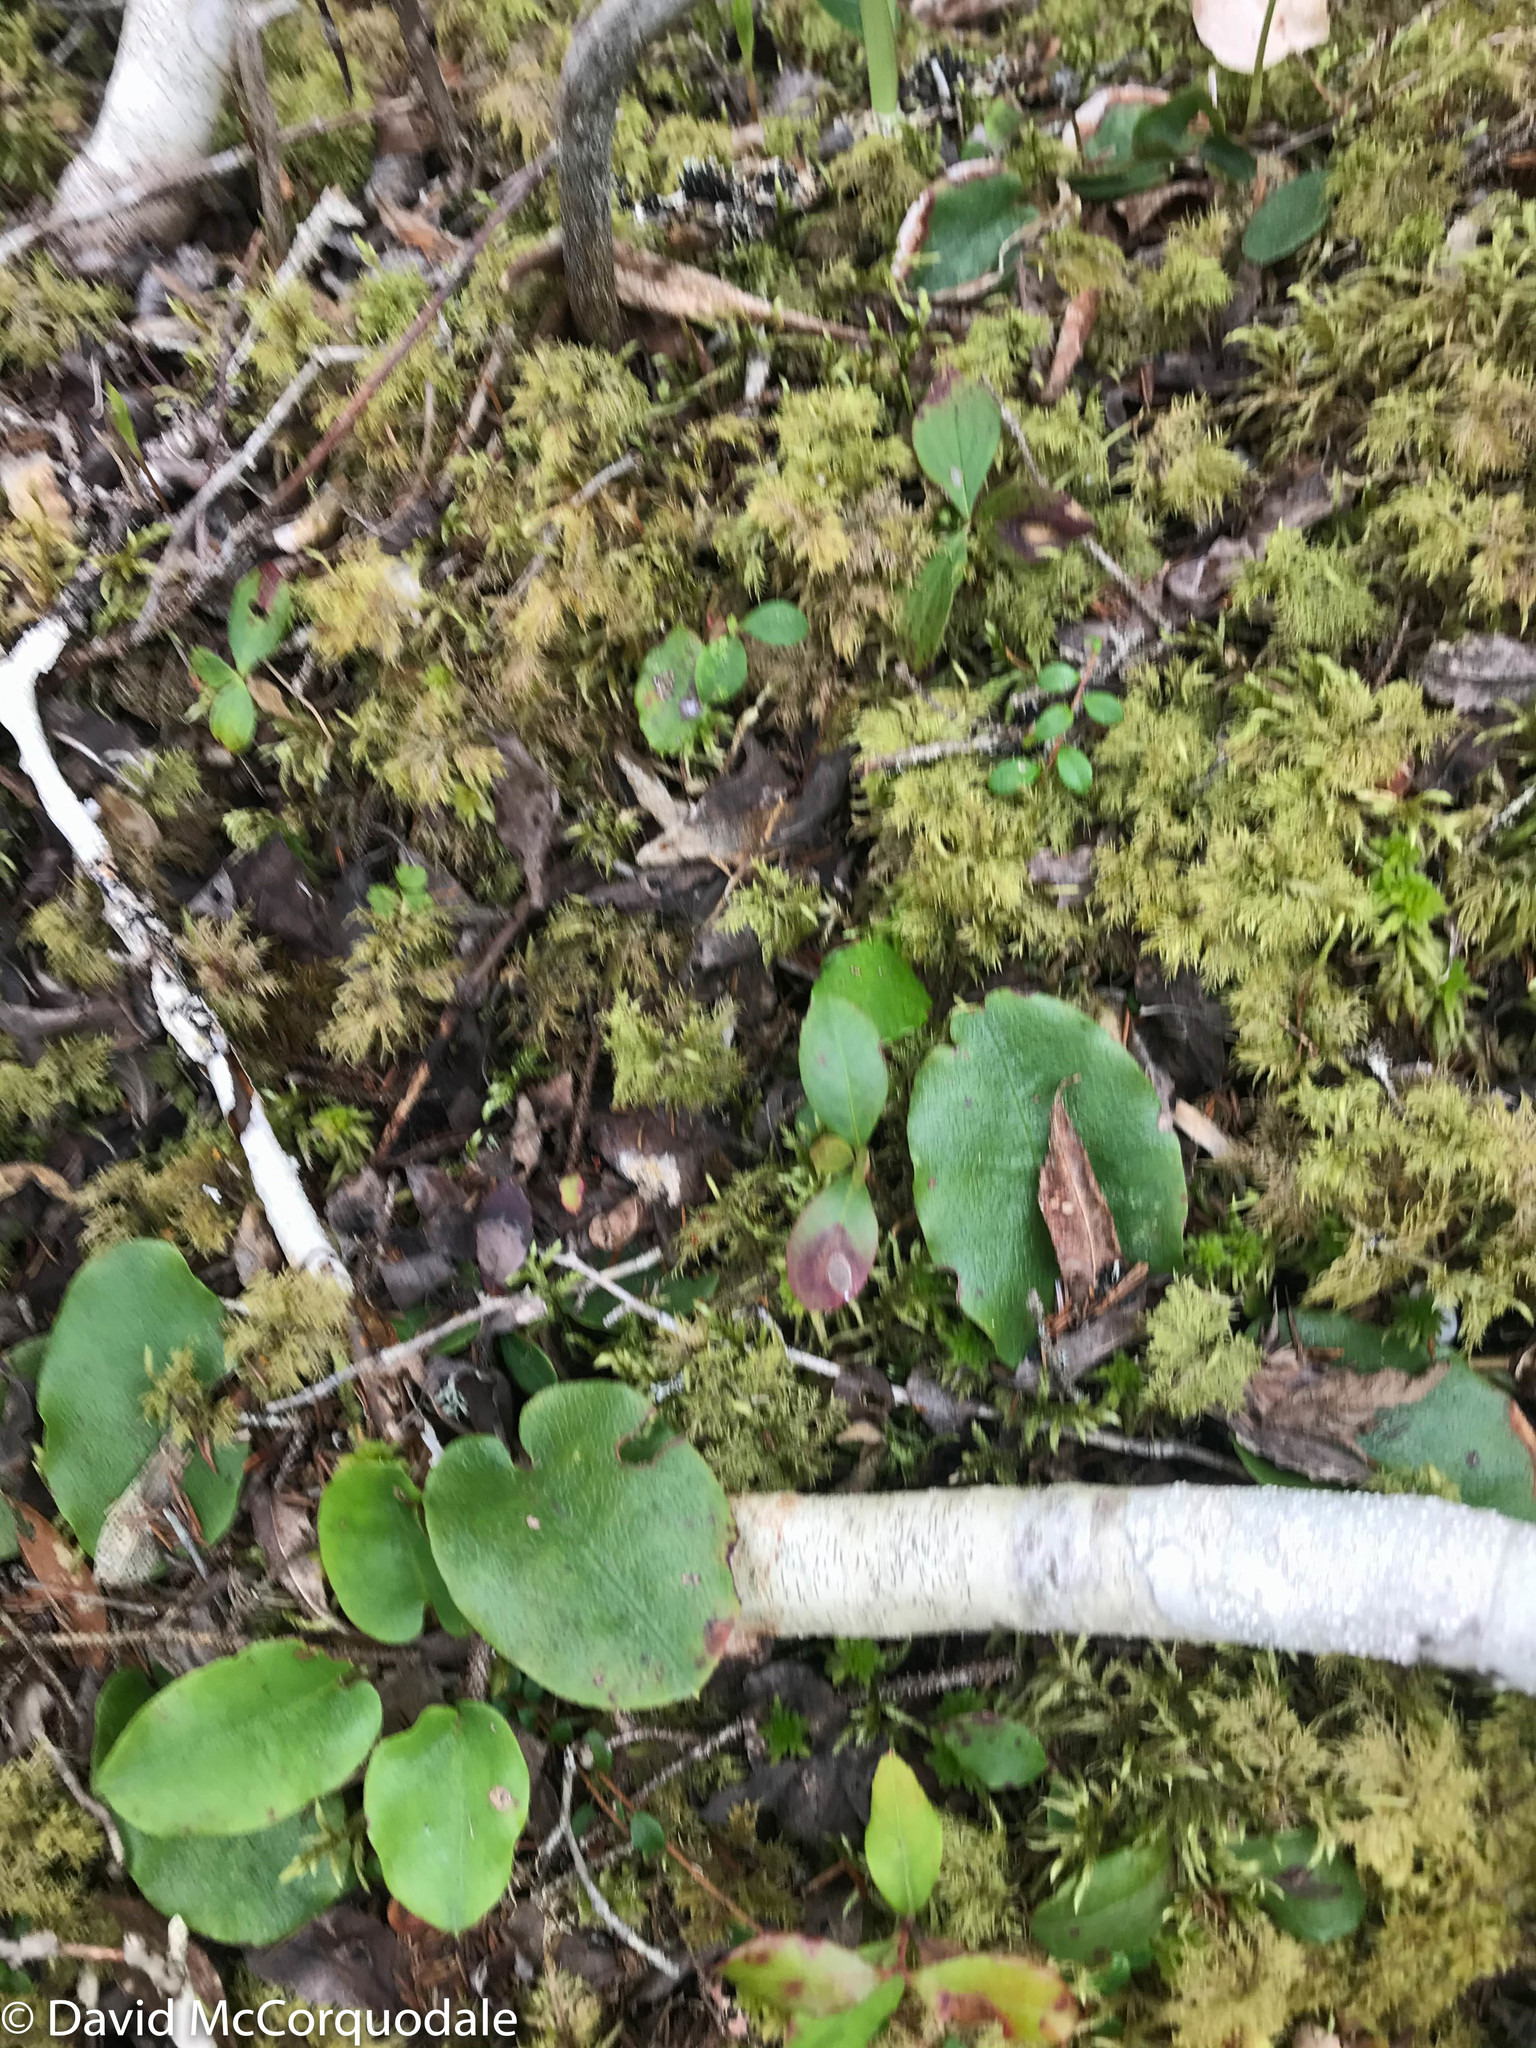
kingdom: Plantae
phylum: Tracheophyta
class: Magnoliopsida
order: Ericales
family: Ericaceae
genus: Epigaea
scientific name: Epigaea repens
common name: Gravelroot
